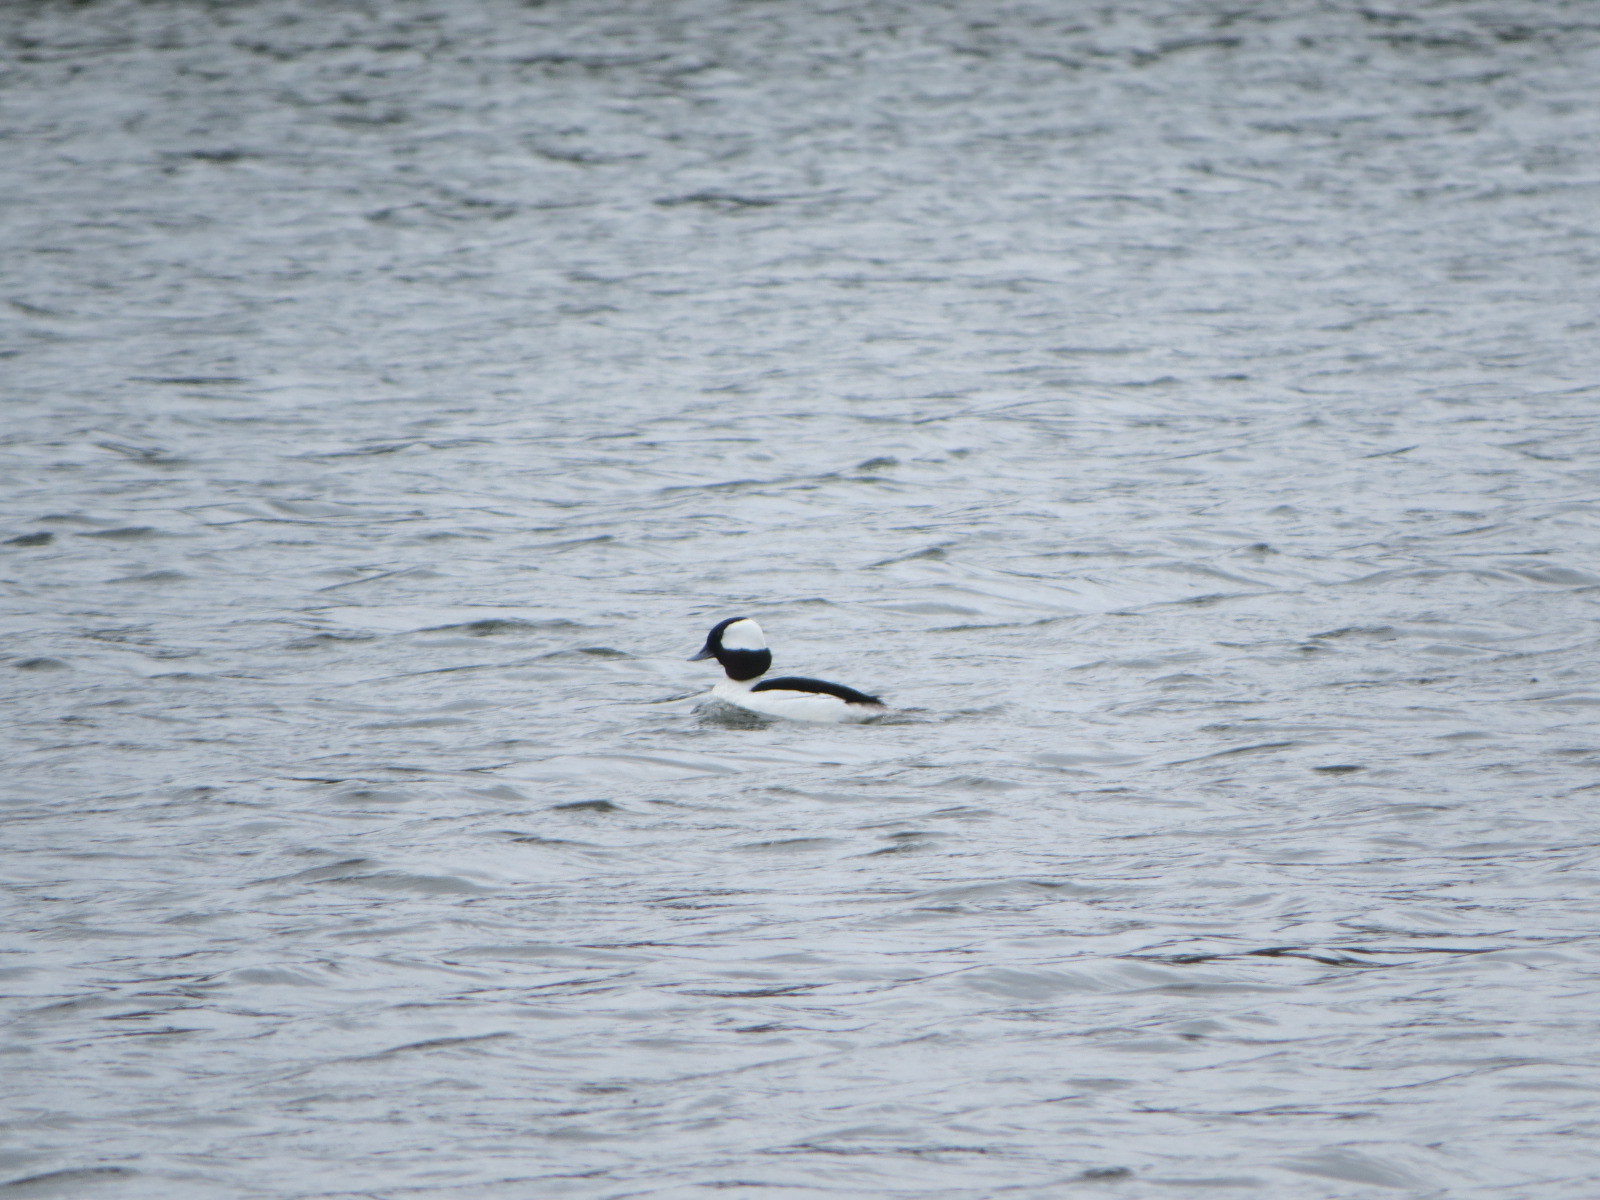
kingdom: Animalia
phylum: Chordata
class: Aves
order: Anseriformes
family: Anatidae
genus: Bucephala
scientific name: Bucephala albeola
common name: Bufflehead
